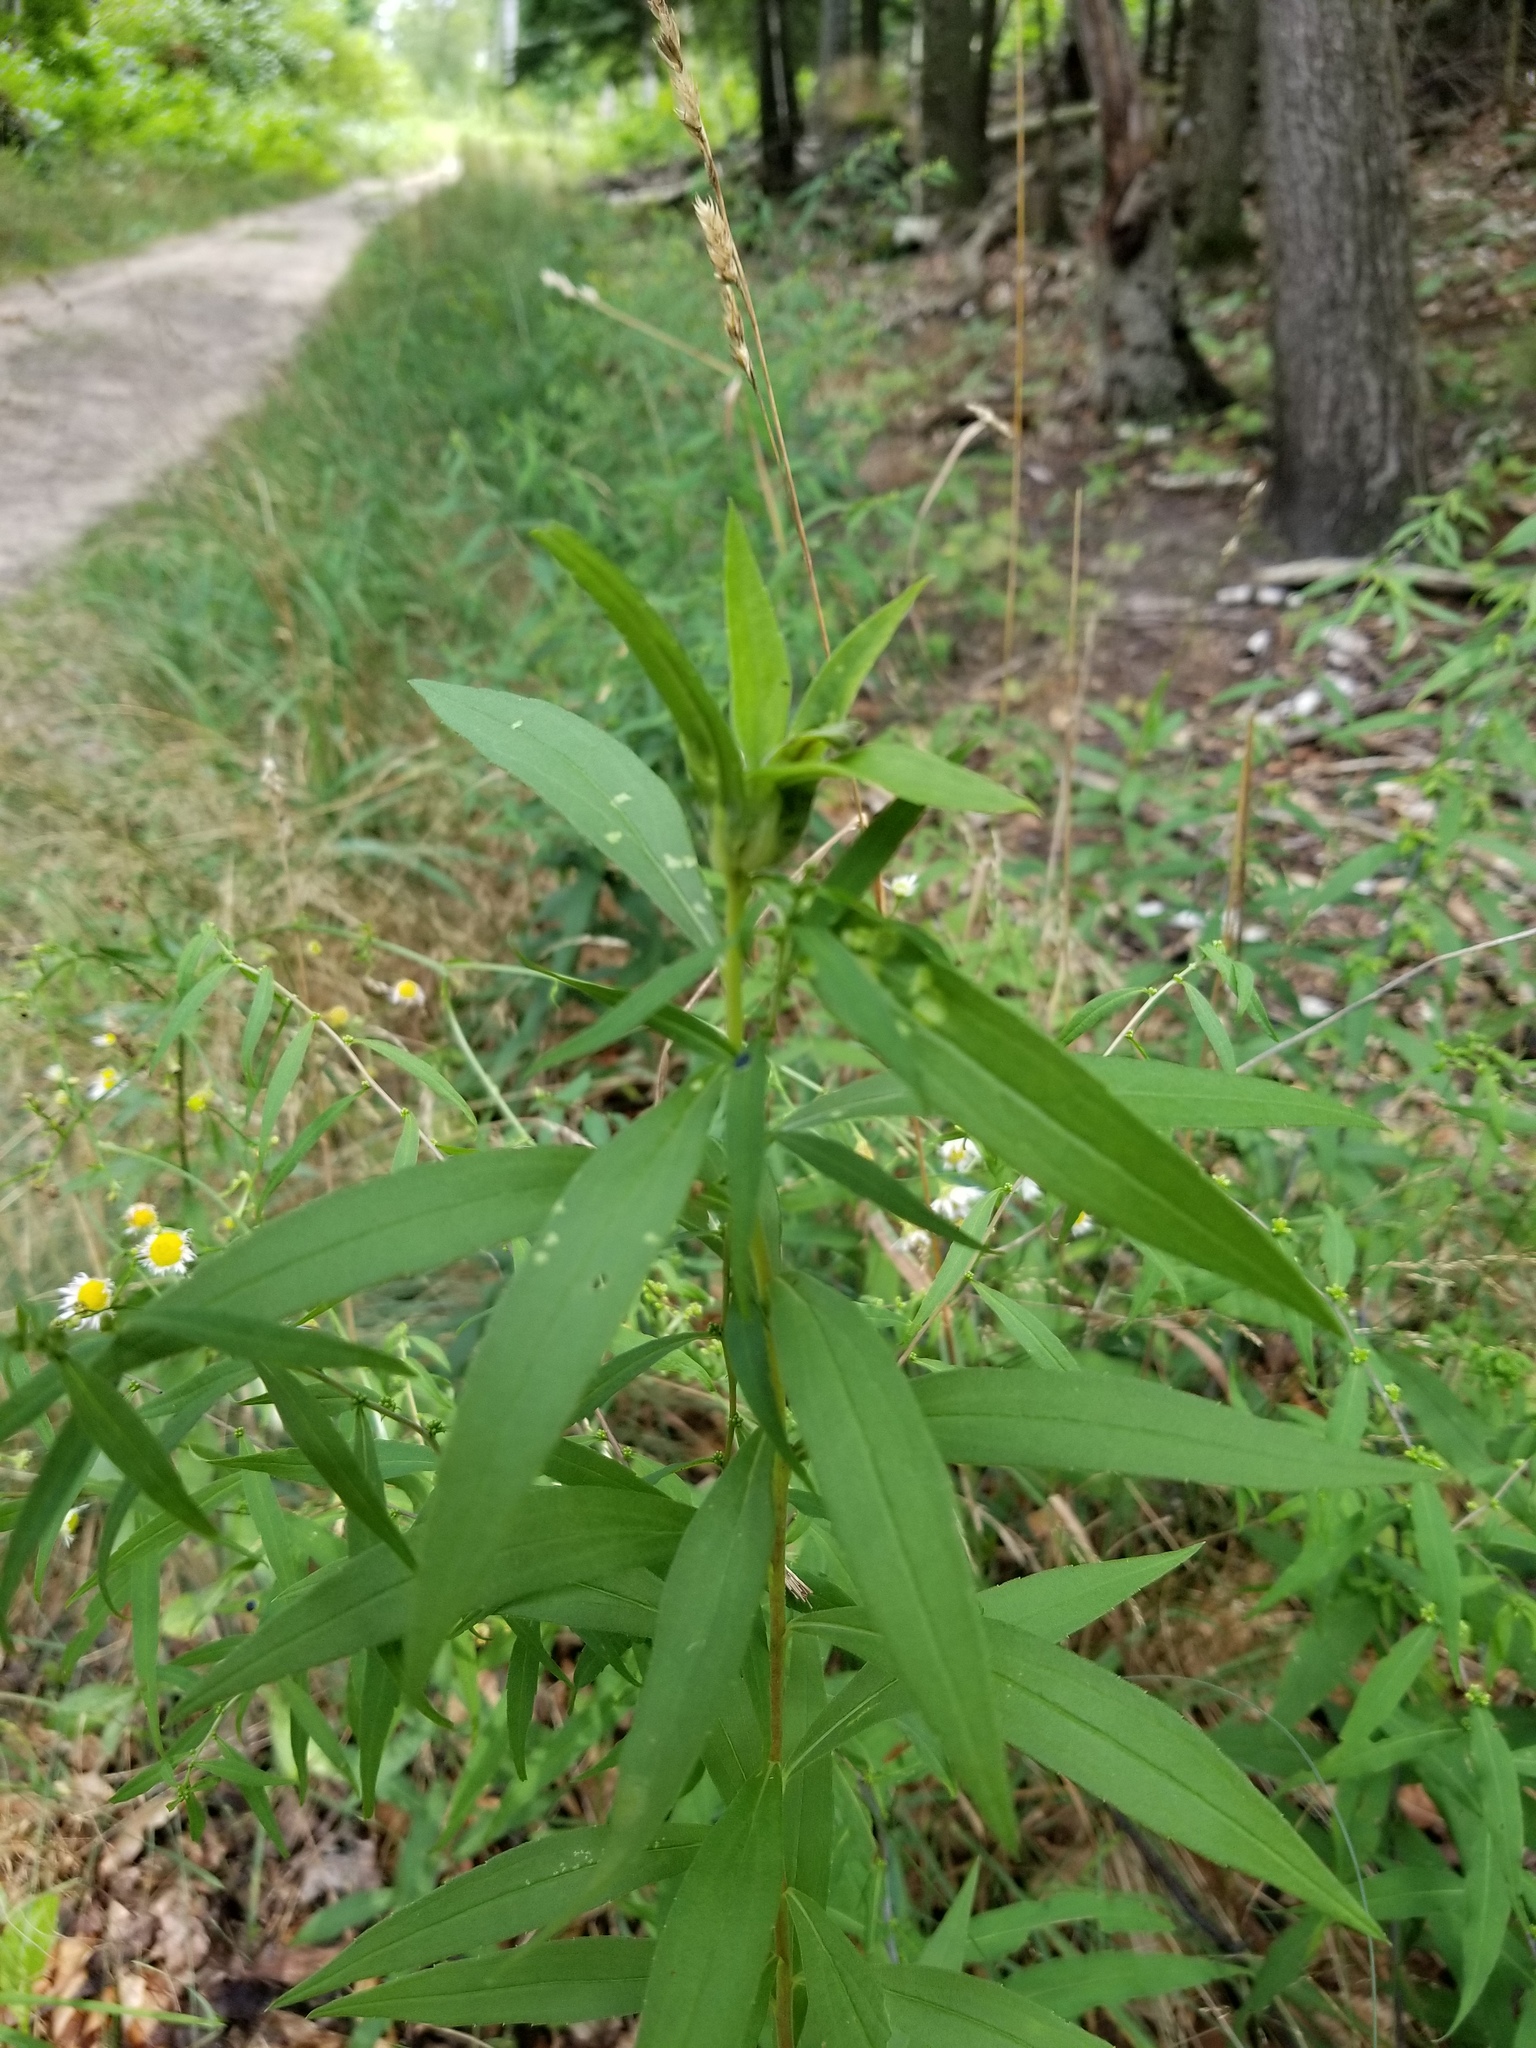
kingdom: Animalia
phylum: Arthropoda
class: Insecta
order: Diptera
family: Cecidomyiidae
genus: Dasineura
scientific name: Dasineura folliculi
